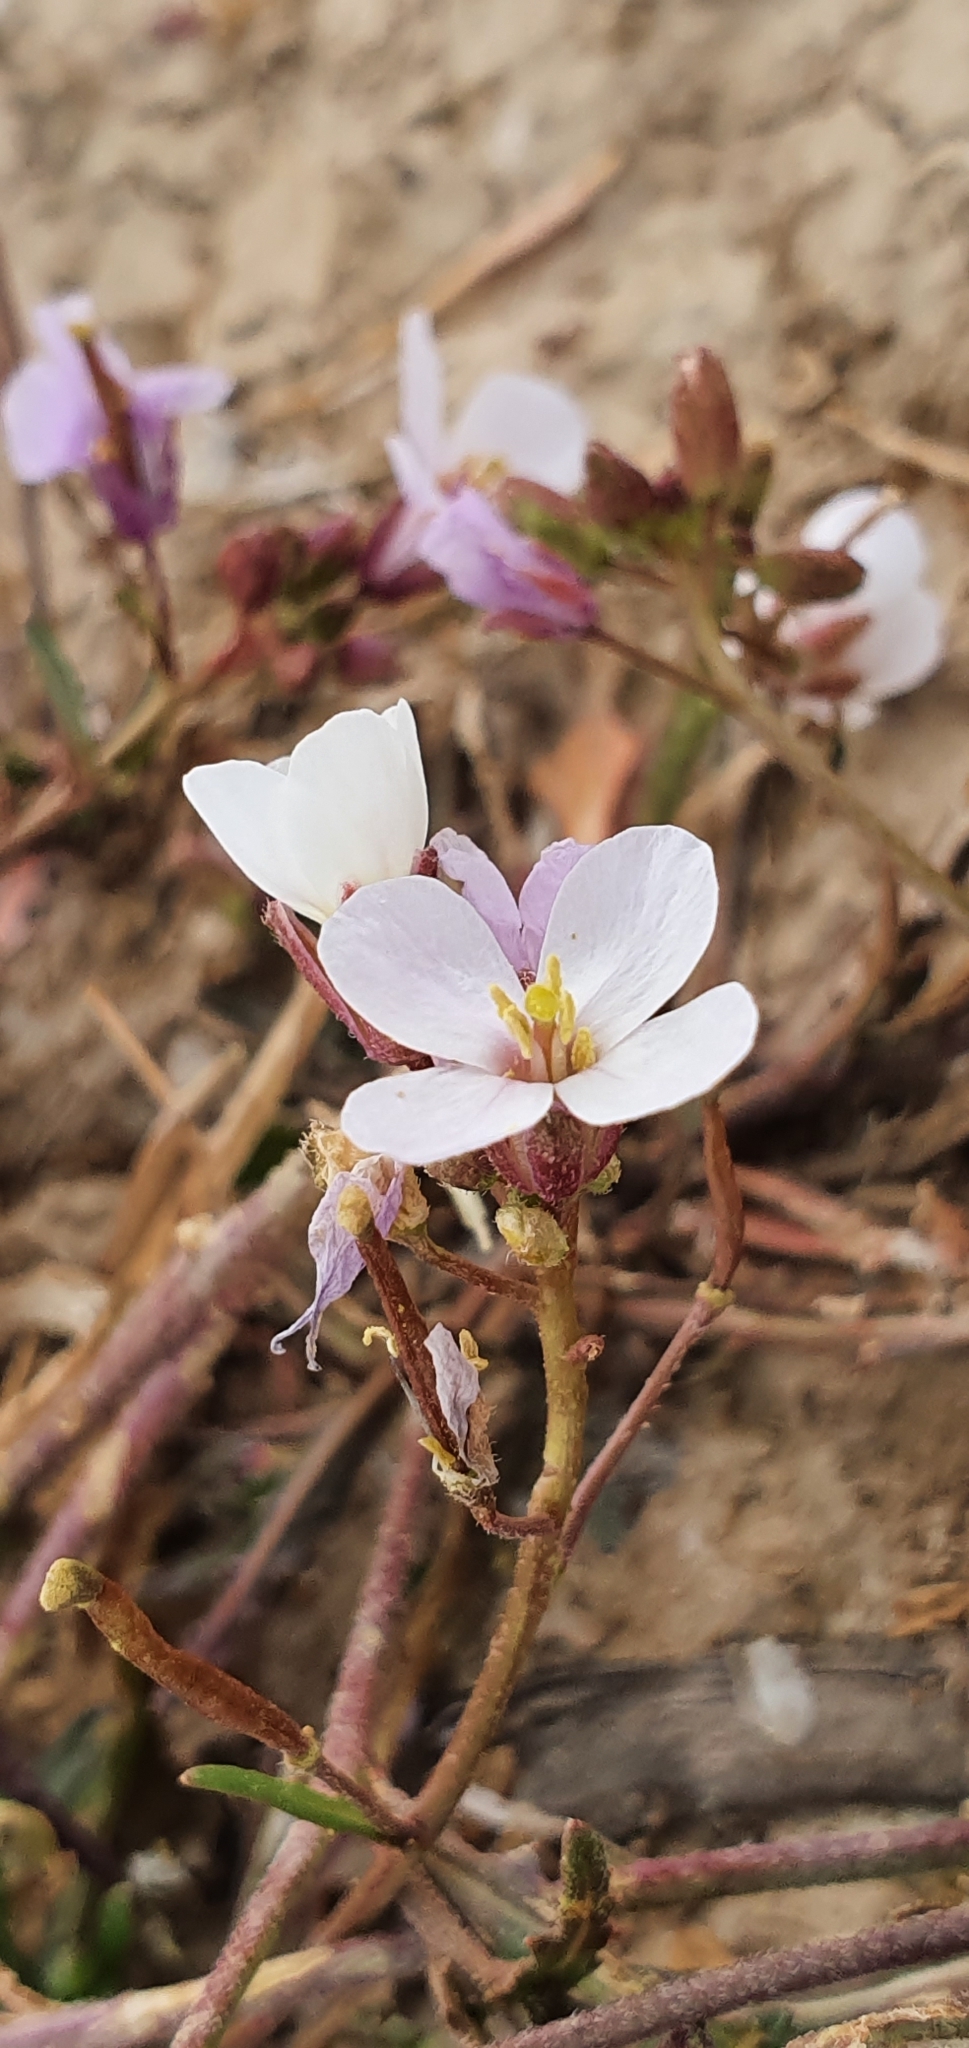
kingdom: Plantae
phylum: Tracheophyta
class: Magnoliopsida
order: Brassicales
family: Brassicaceae
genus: Diplotaxis
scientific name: Diplotaxis erucoides
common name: White rocket
